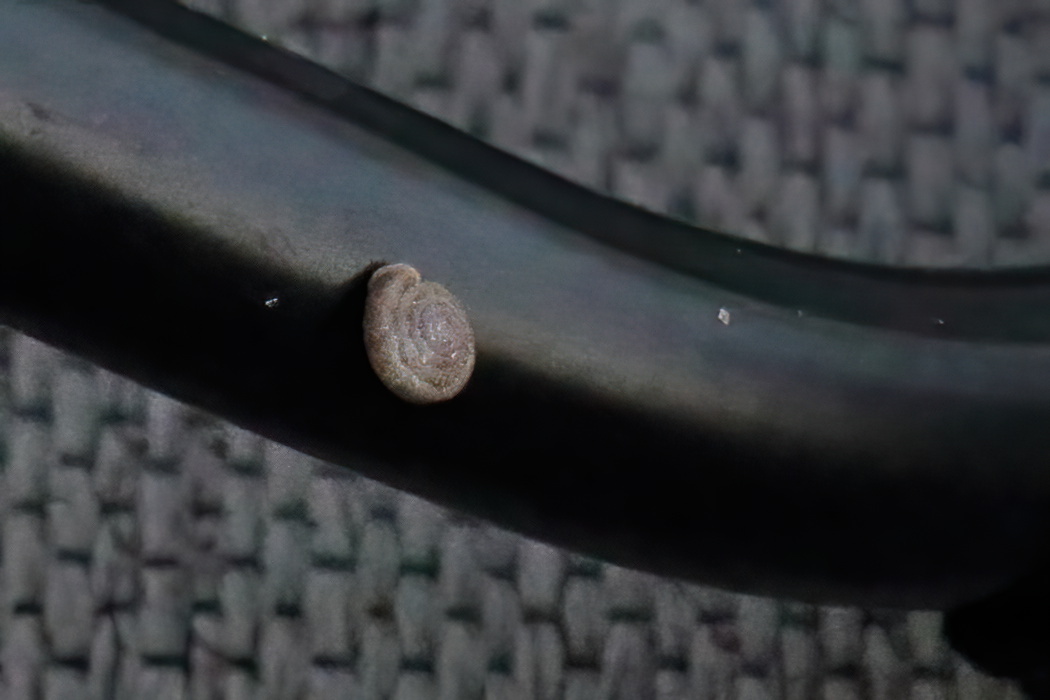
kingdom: Animalia
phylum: Mollusca
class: Gastropoda
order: Stylommatophora
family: Polygyridae
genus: Polygyra
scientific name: Polygyra cereolus
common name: Southern flatcone snail
